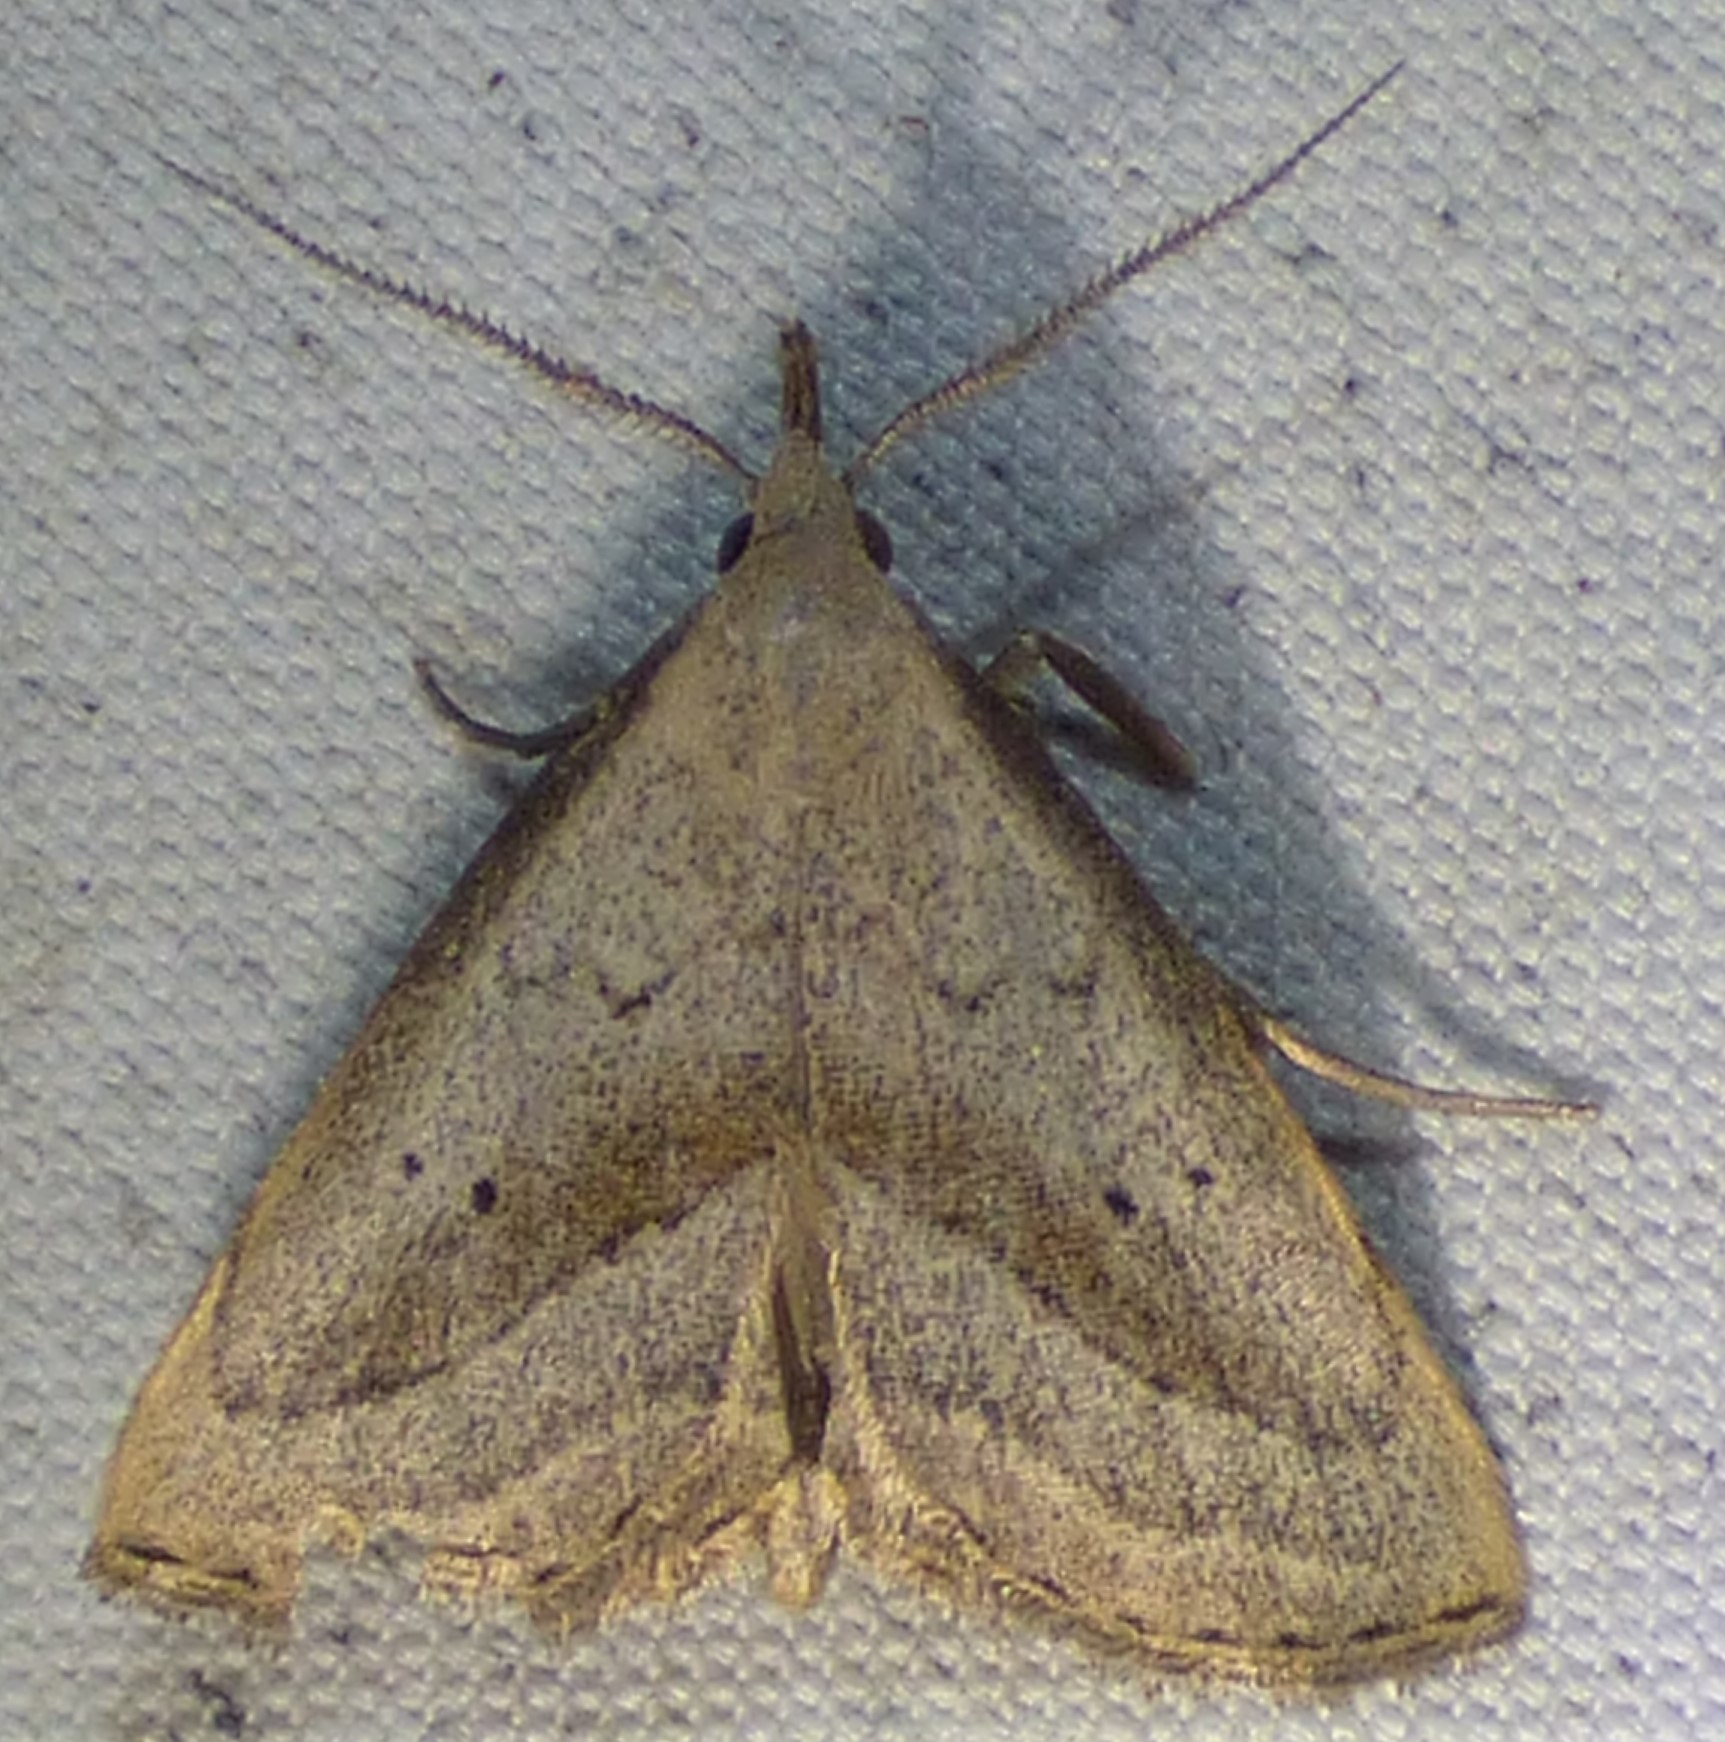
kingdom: Animalia
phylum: Arthropoda
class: Insecta
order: Lepidoptera
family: Erebidae
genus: Macrochilo
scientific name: Macrochilo hypocritalis
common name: Twin-dotted owlet
